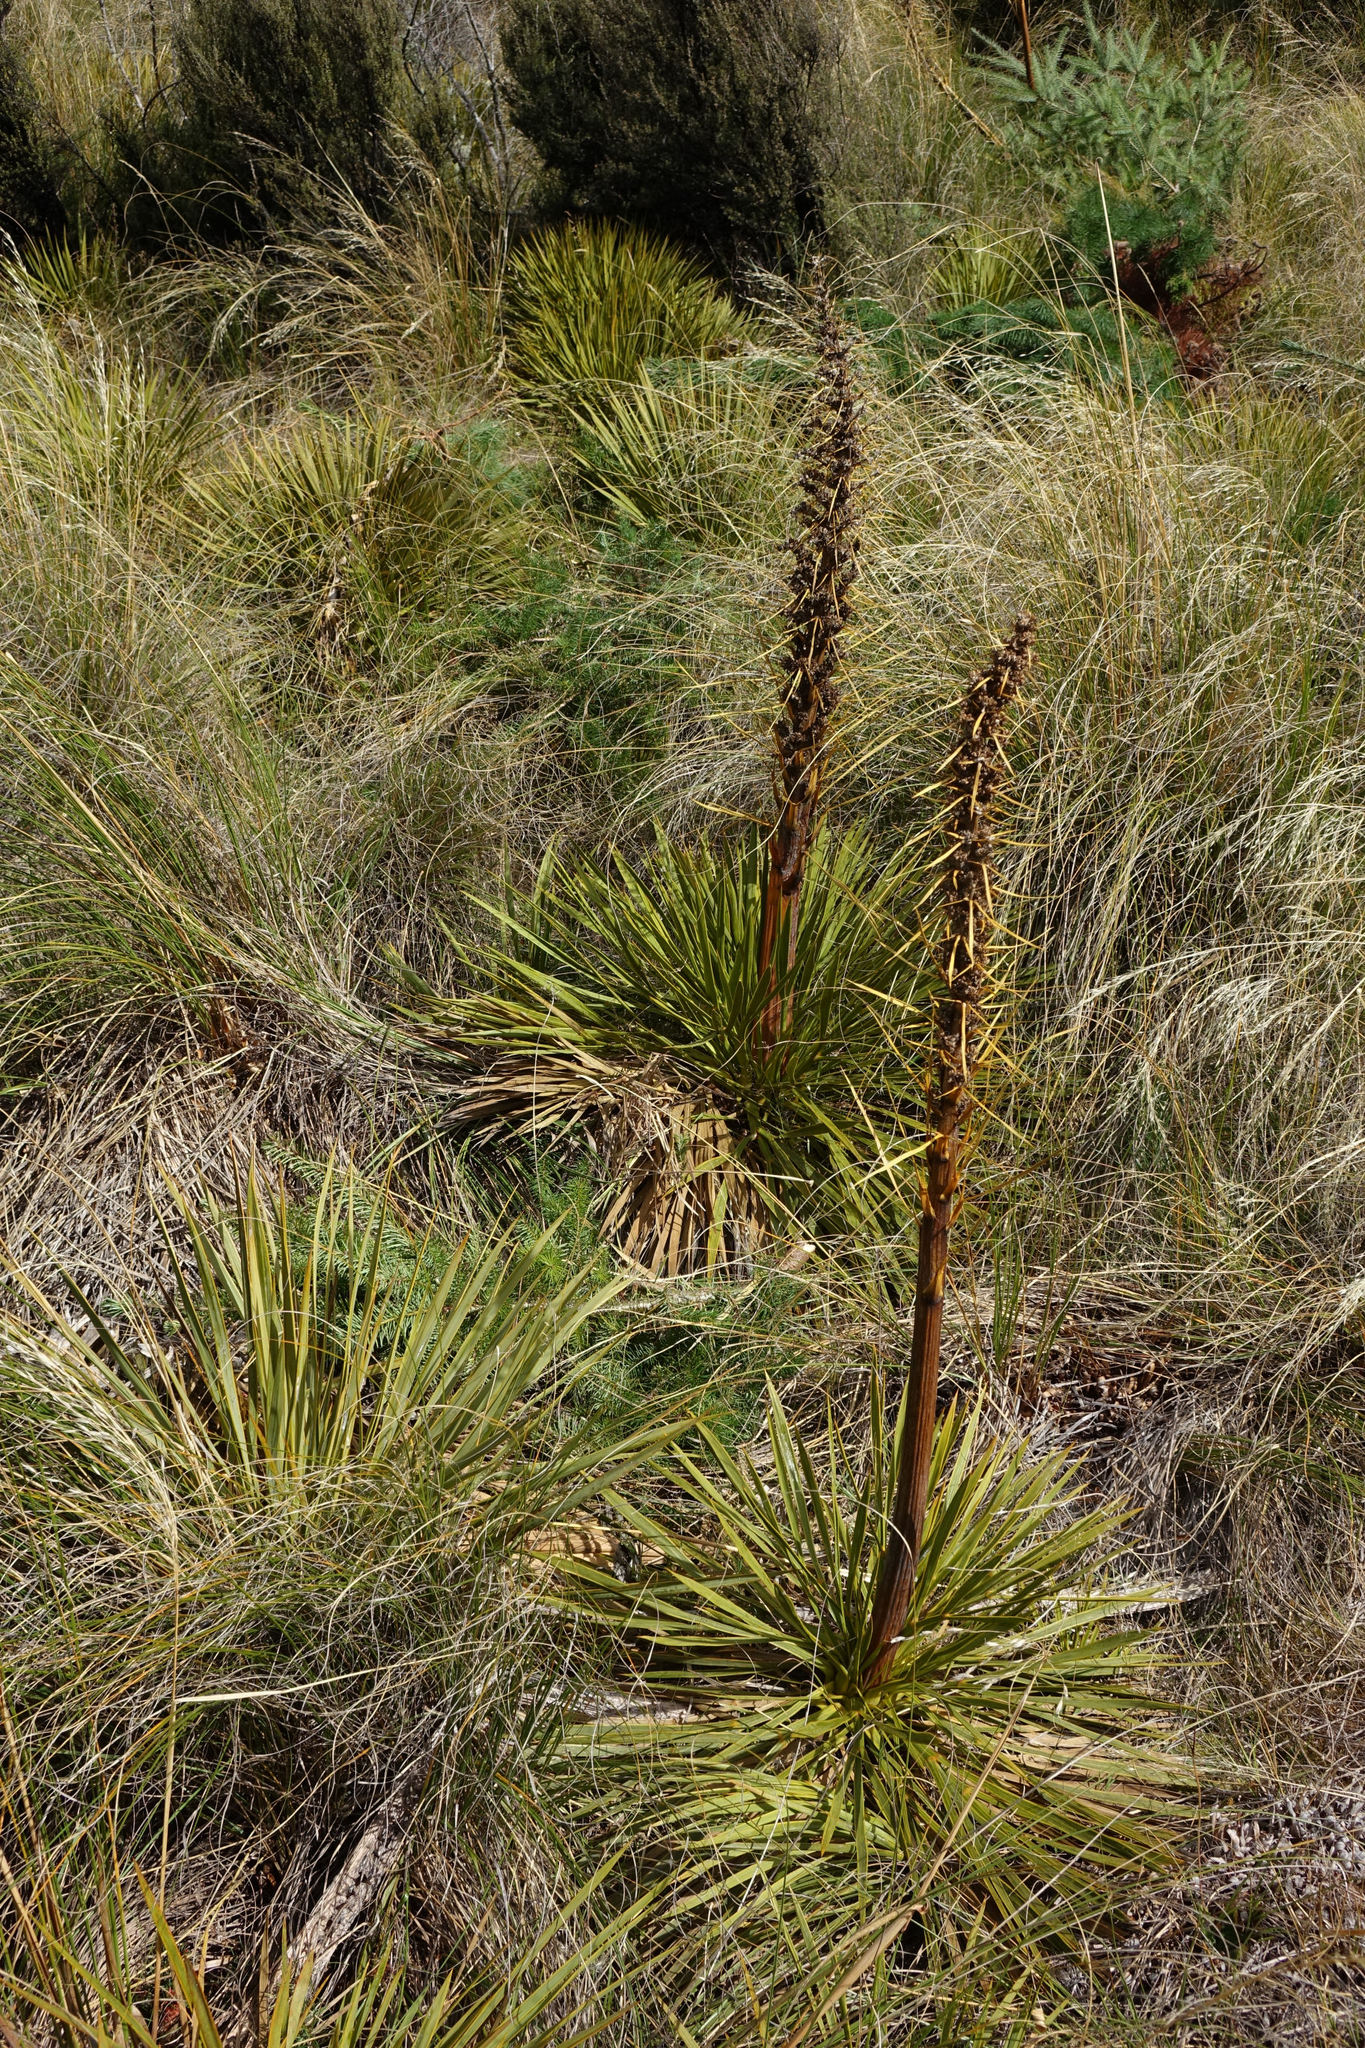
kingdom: Plantae
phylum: Tracheophyta
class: Magnoliopsida
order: Apiales
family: Apiaceae
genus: Aciphylla
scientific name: Aciphylla aurea
